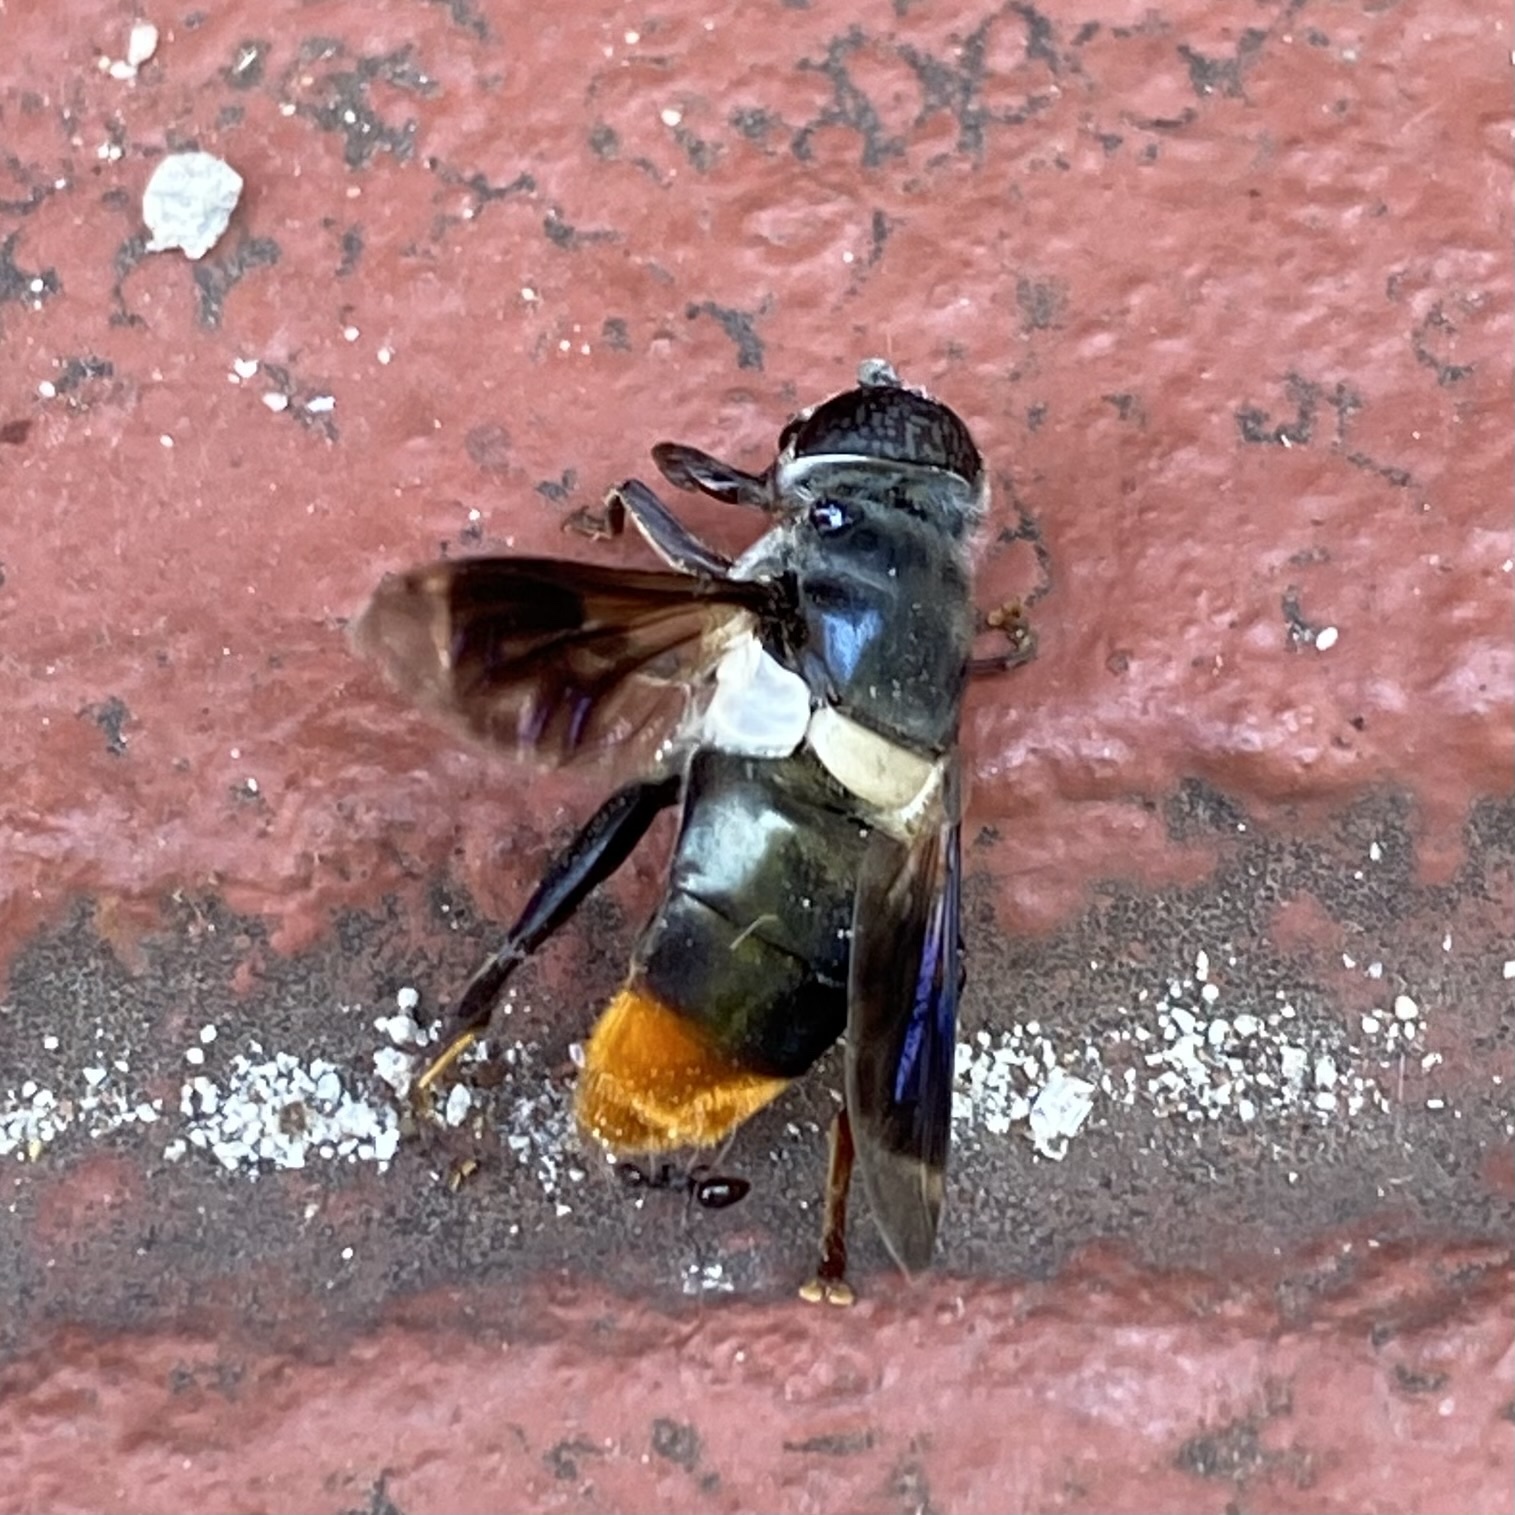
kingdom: Animalia
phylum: Arthropoda
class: Insecta
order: Diptera
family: Syrphidae
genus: Senaspis
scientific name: Senaspis haemorrhoa
